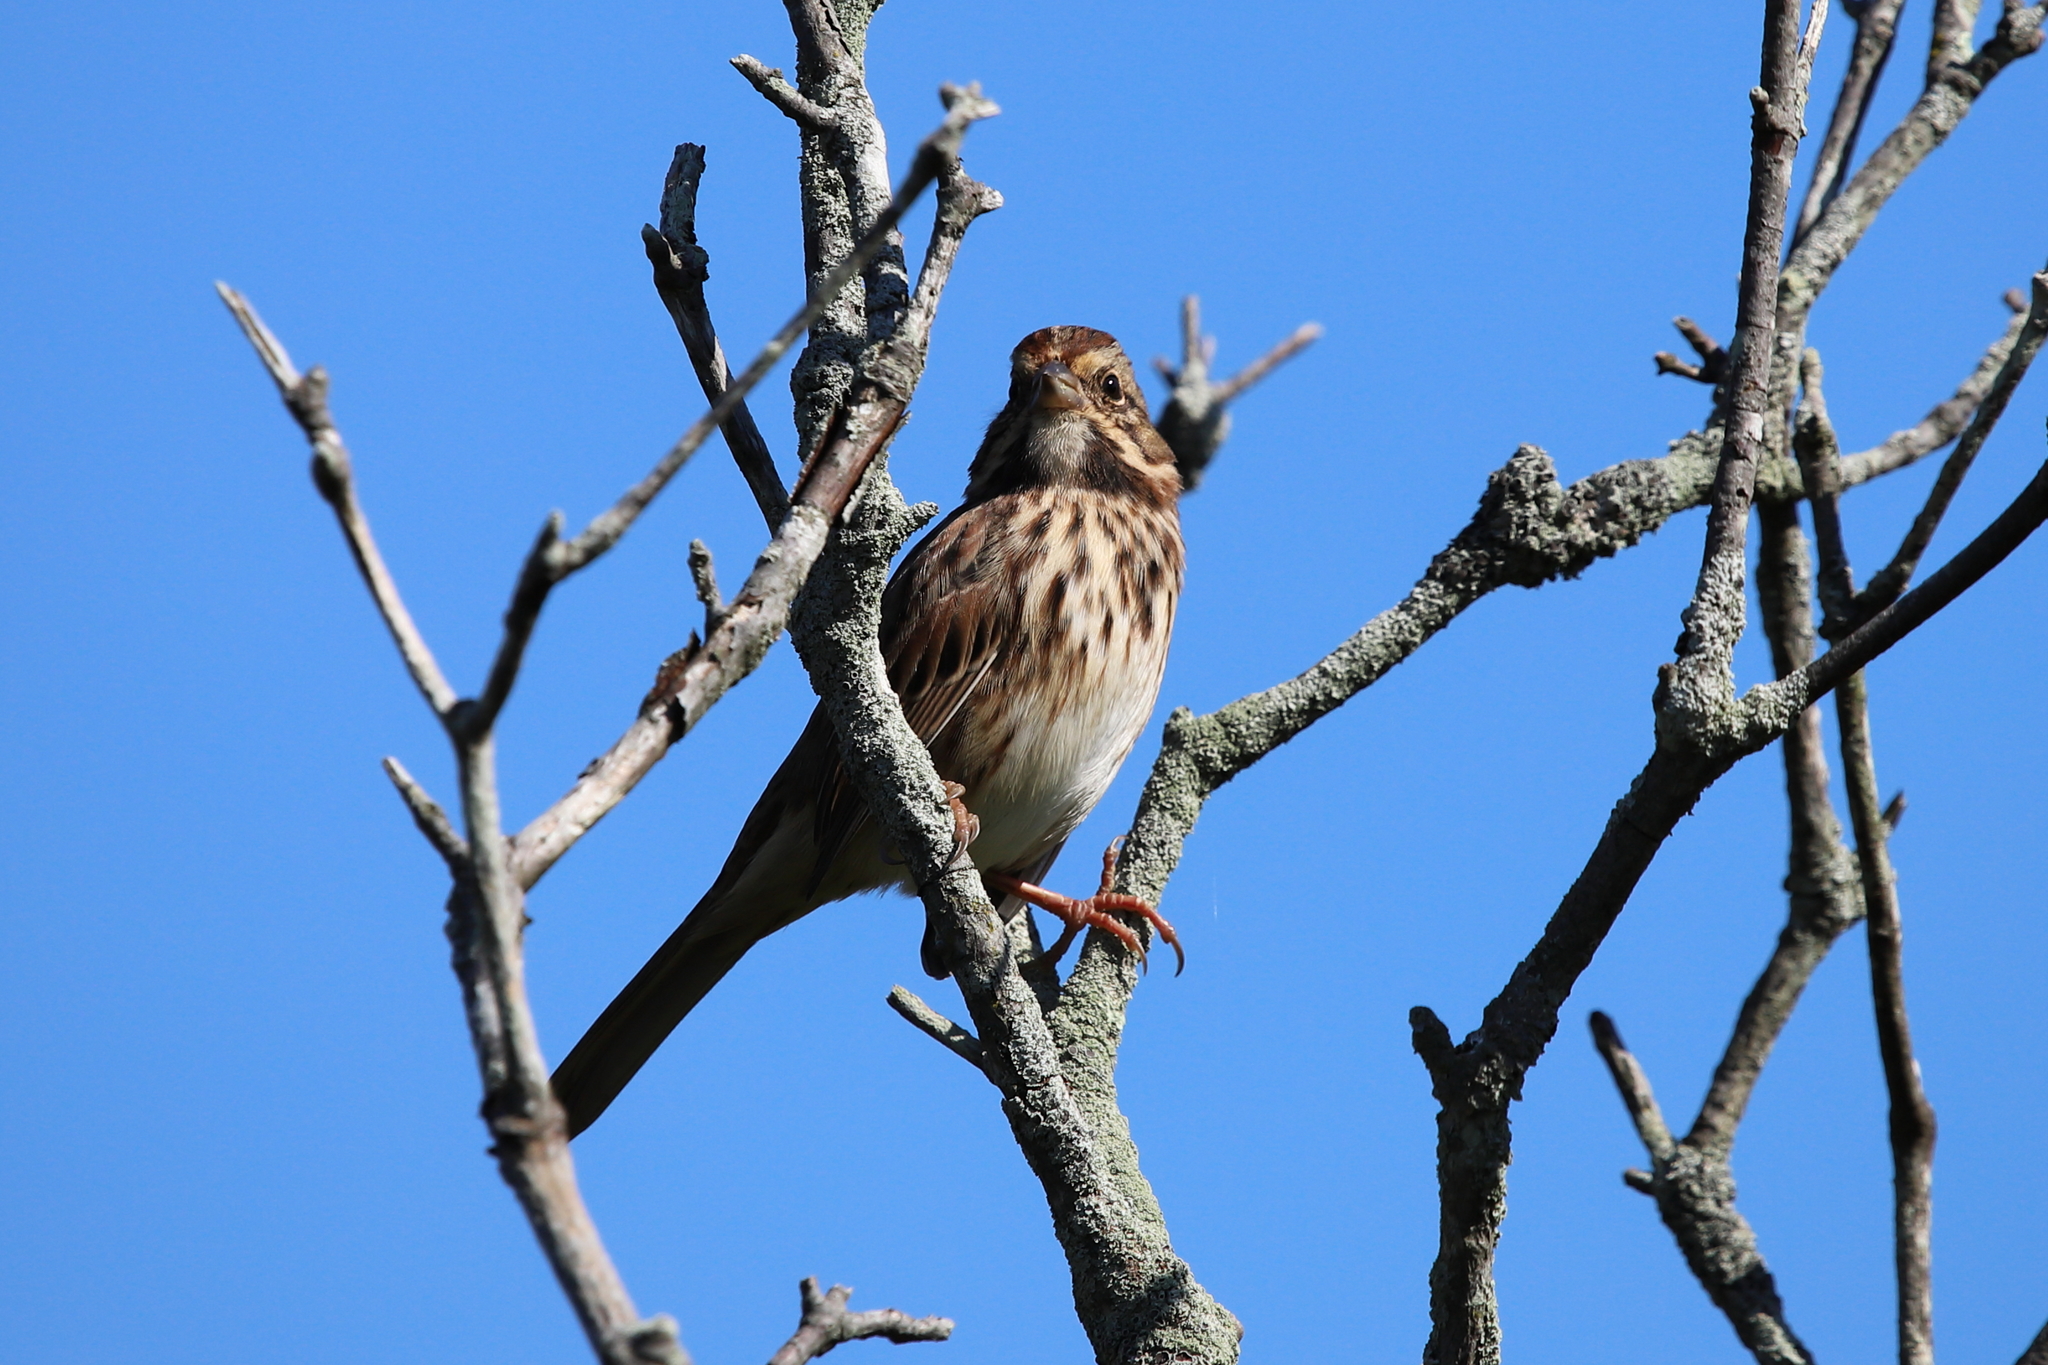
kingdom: Animalia
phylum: Chordata
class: Aves
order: Passeriformes
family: Passerellidae
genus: Melospiza
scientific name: Melospiza melodia
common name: Song sparrow
